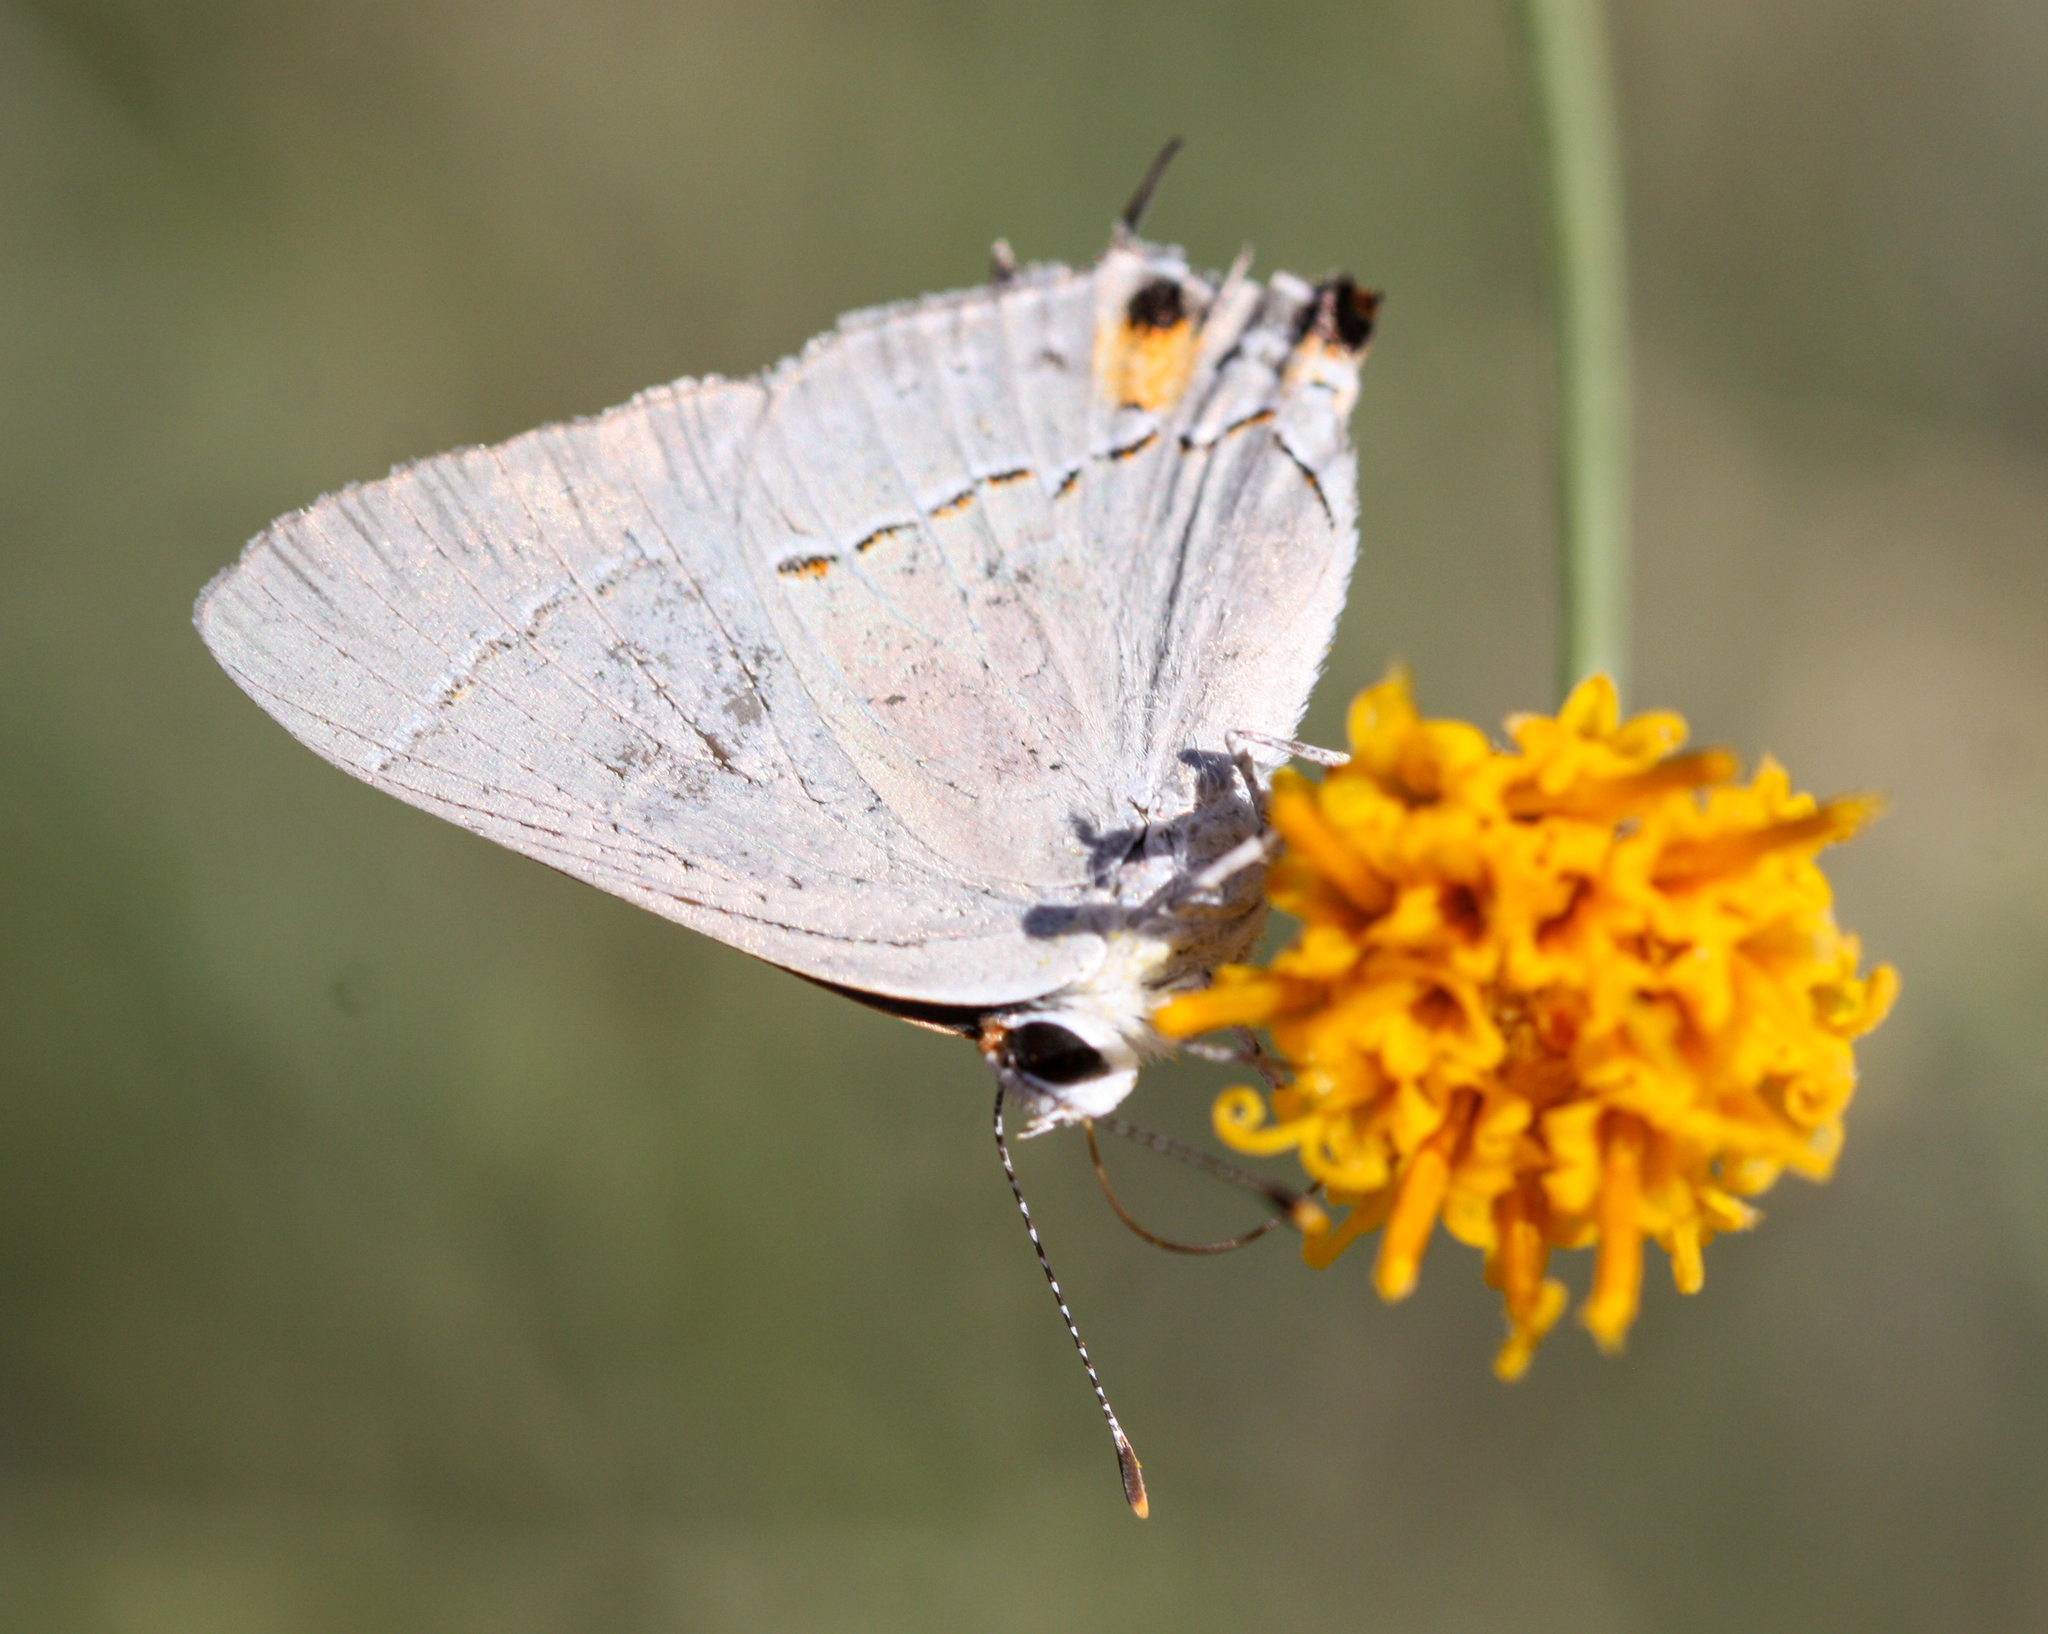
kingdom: Animalia
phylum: Arthropoda
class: Insecta
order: Lepidoptera
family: Lycaenidae
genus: Strymon
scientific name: Strymon melinus
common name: Gray hairstreak
